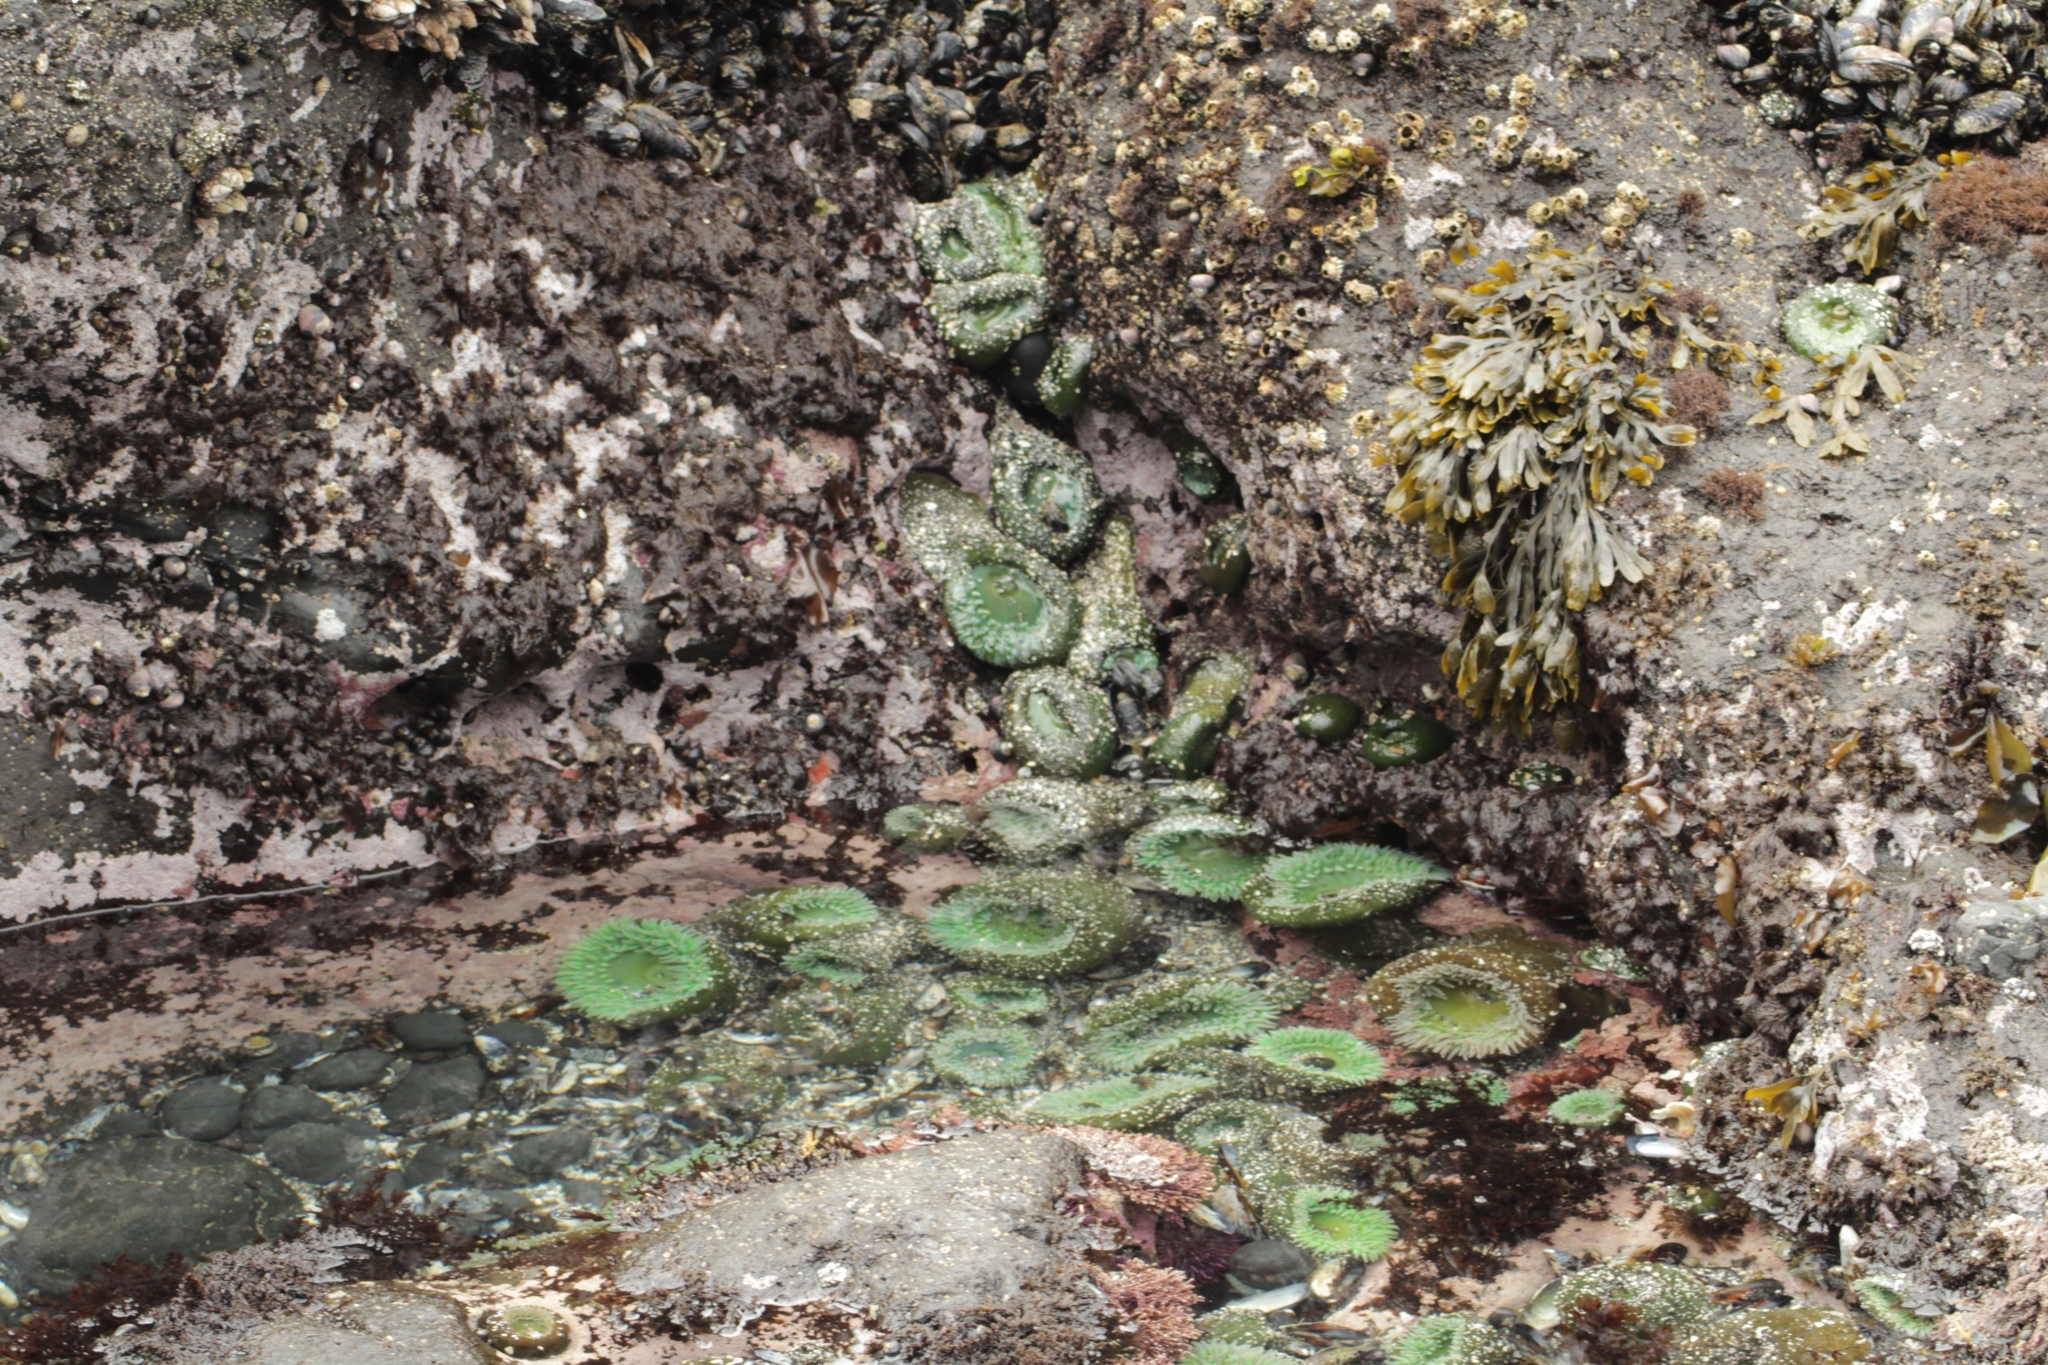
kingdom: Animalia
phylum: Cnidaria
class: Anthozoa
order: Actiniaria
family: Actiniidae
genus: Anthopleura
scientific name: Anthopleura xanthogrammica
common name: Giant green anemone
